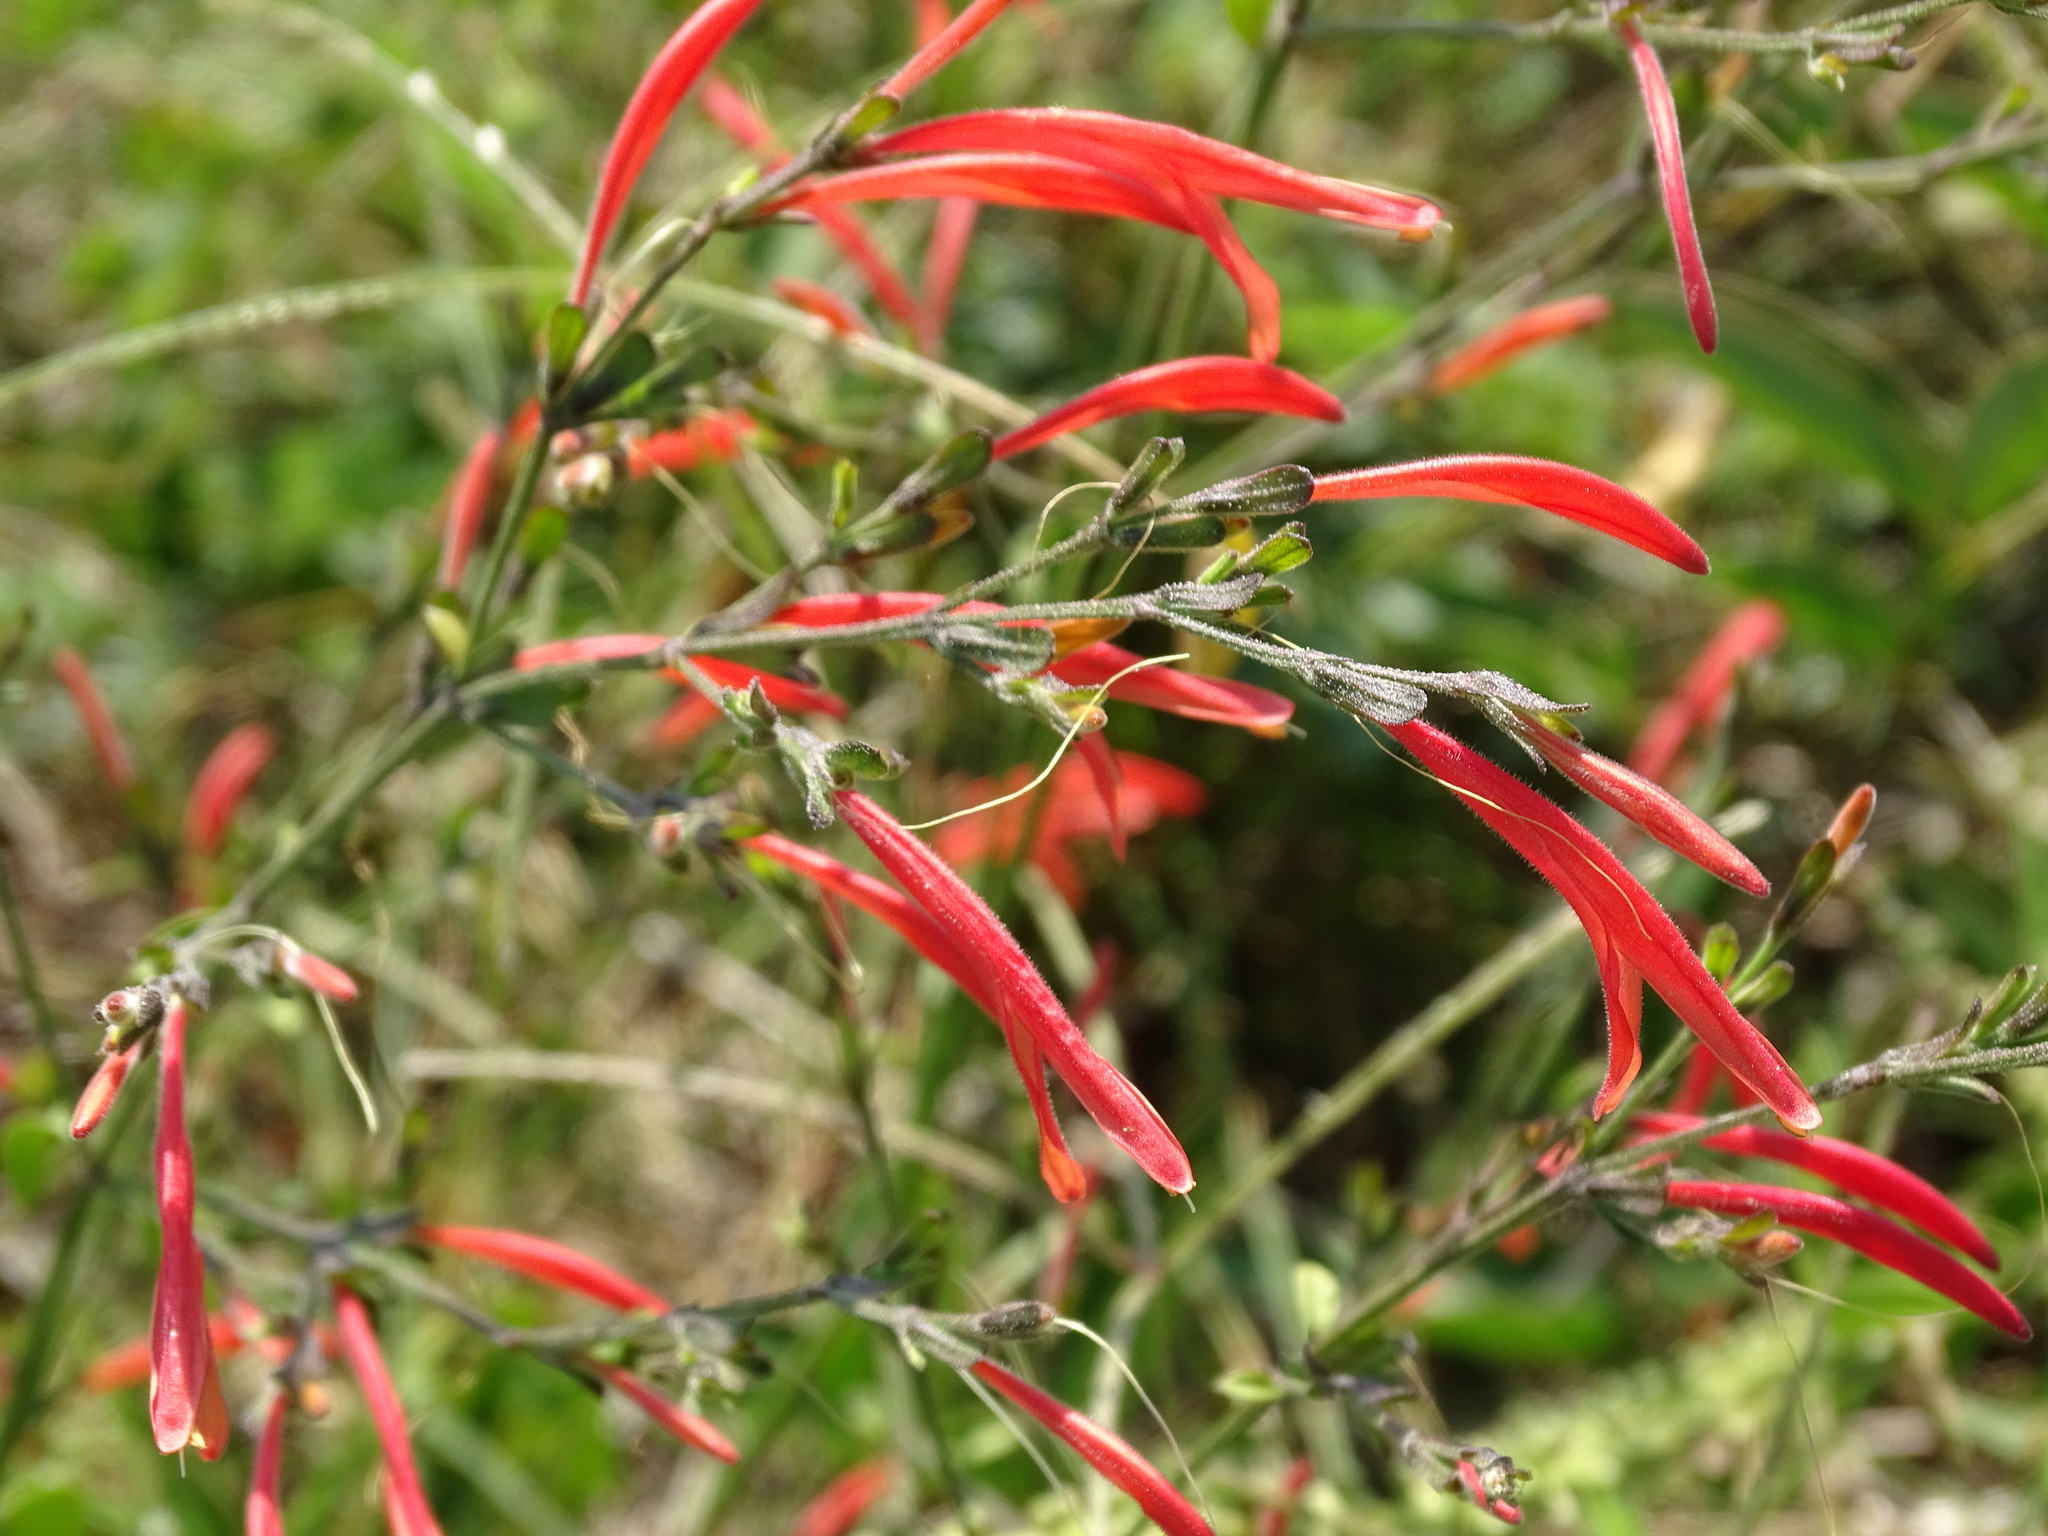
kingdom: Plantae
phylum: Tracheophyta
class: Magnoliopsida
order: Lamiales
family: Acanthaceae
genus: Dicliptera
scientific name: Dicliptera sexangularis
